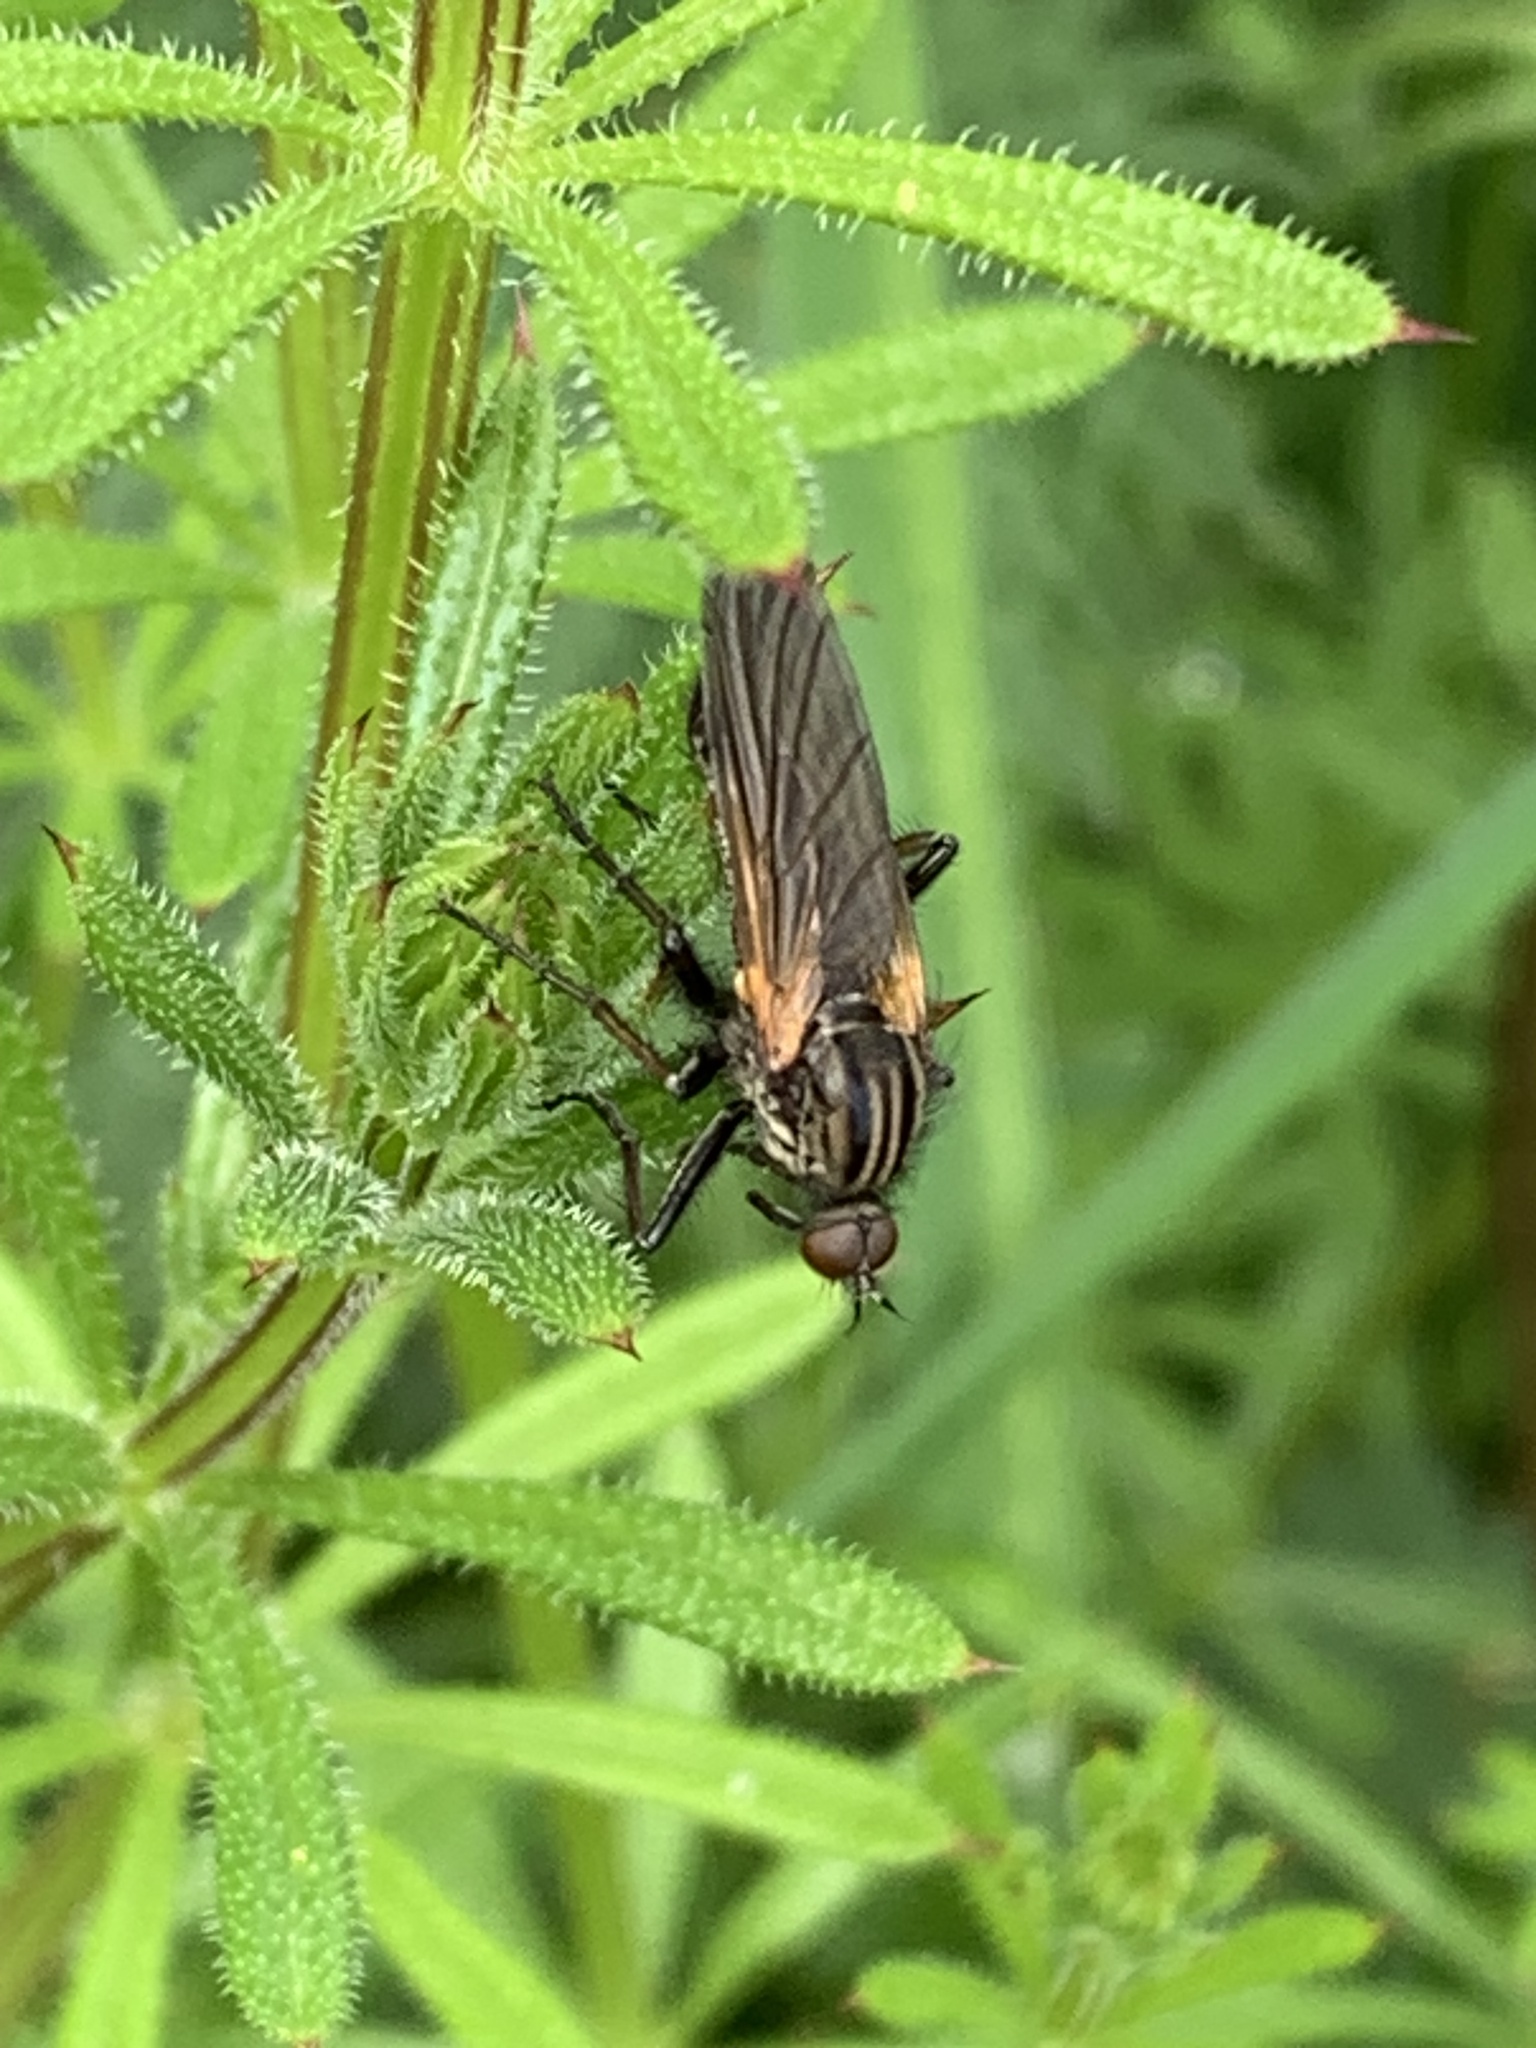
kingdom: Animalia
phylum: Arthropoda
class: Insecta
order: Diptera
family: Empididae
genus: Empis
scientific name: Empis tessellata
